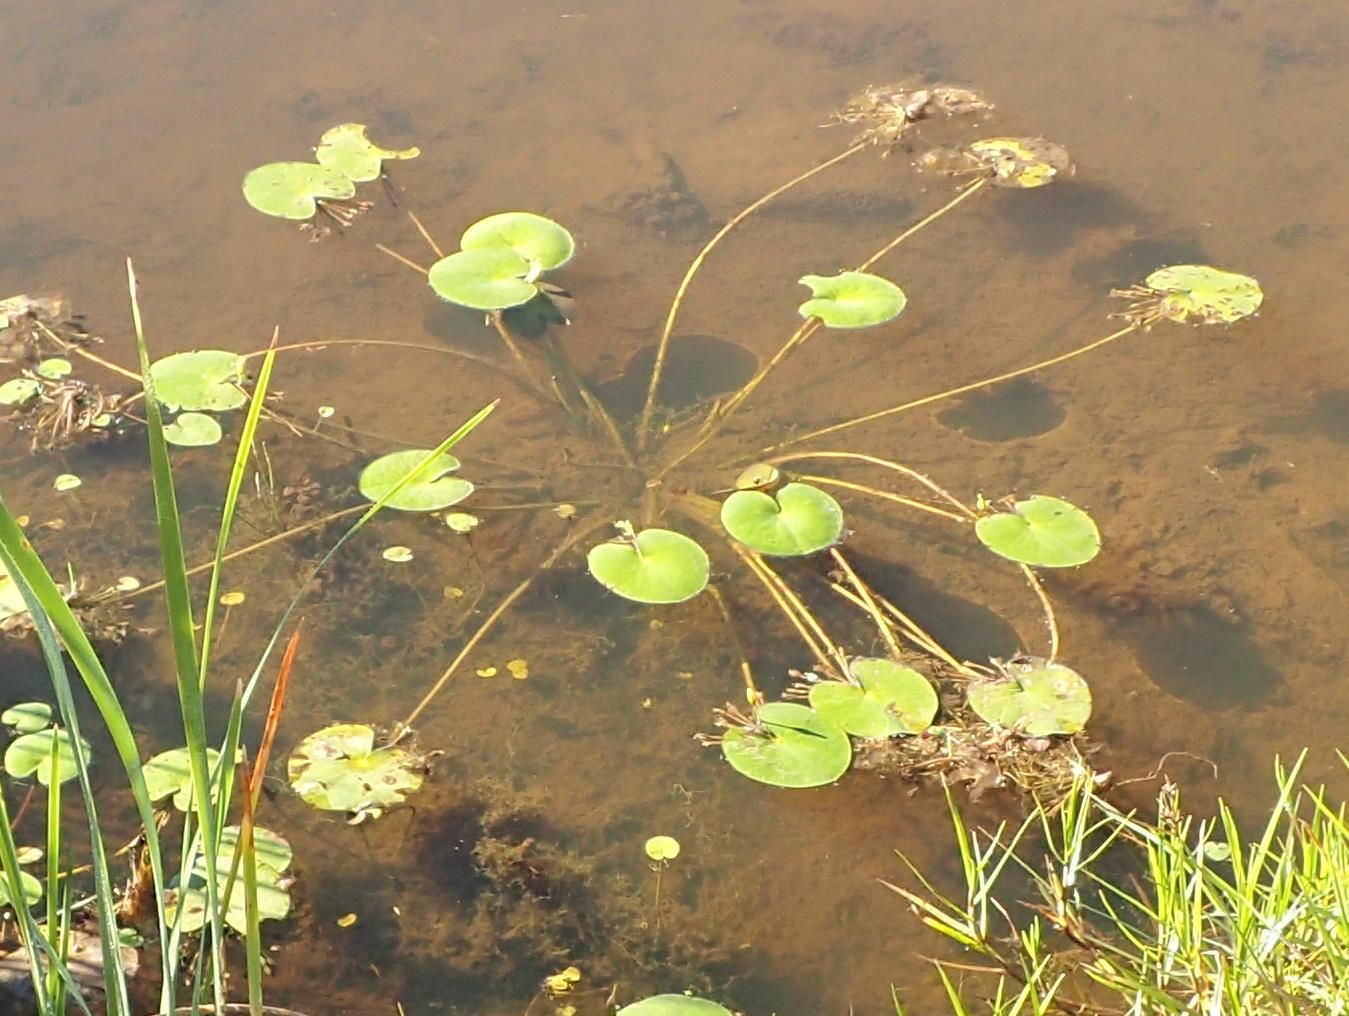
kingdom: Plantae
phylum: Tracheophyta
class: Magnoliopsida
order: Asterales
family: Menyanthaceae
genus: Nymphoides
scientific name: Nymphoides thunbergiana
